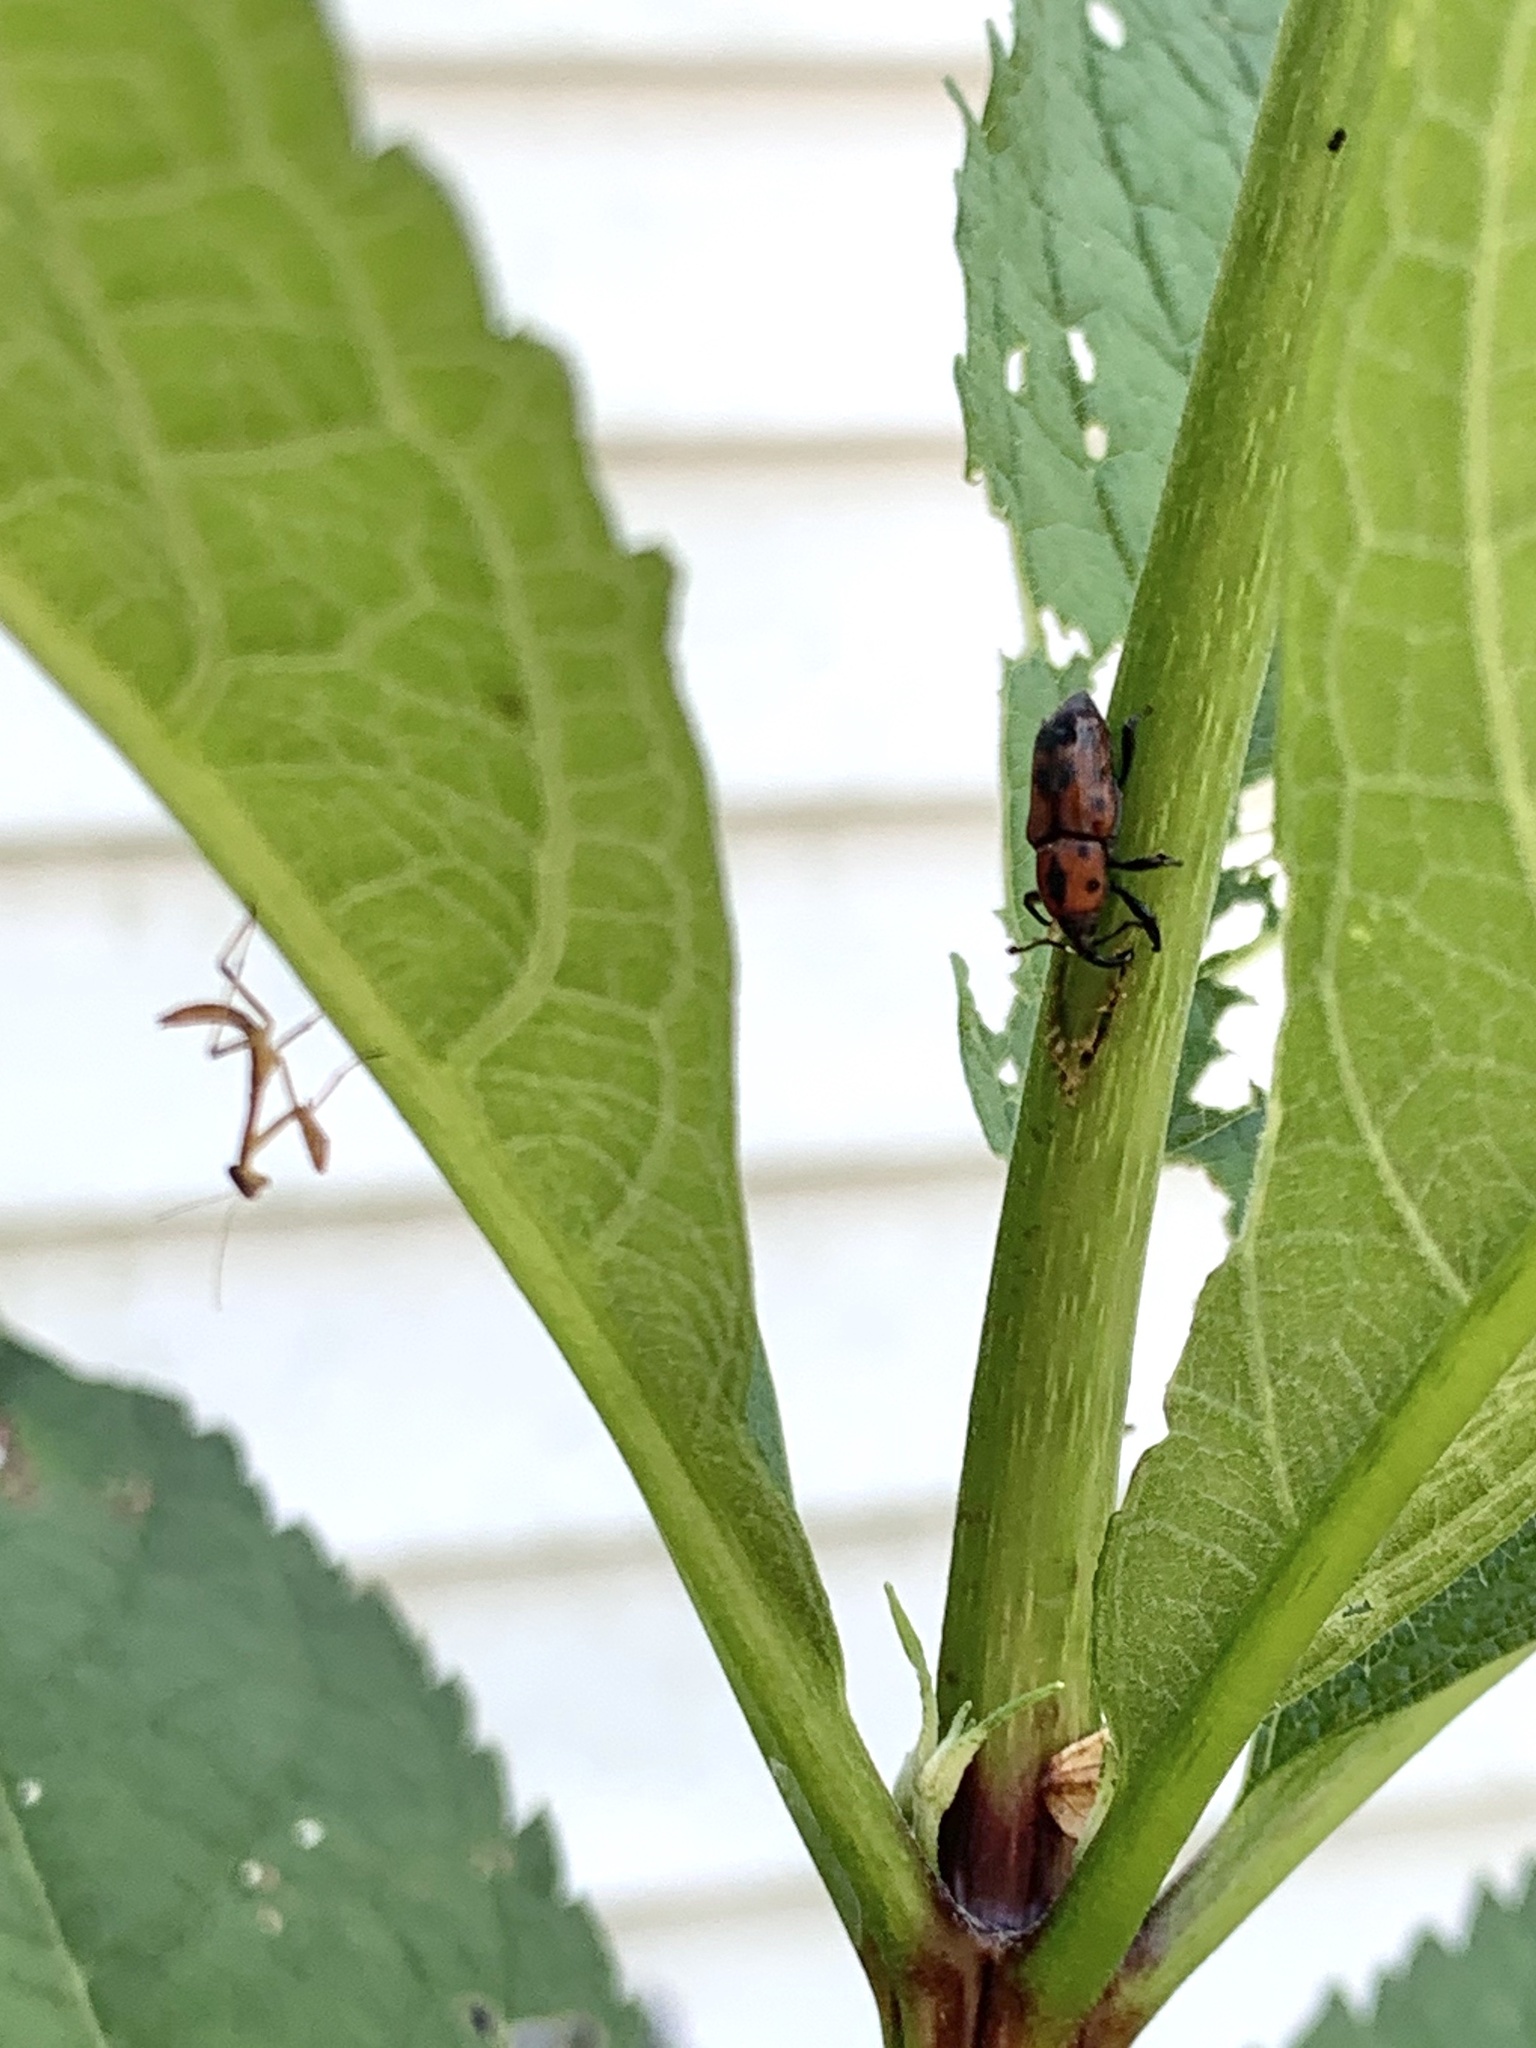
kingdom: Animalia
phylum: Arthropoda
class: Insecta
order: Coleoptera
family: Dryophthoridae
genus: Rhodobaenus
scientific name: Rhodobaenus quinquepunctatus
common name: Cocklebur weevil
